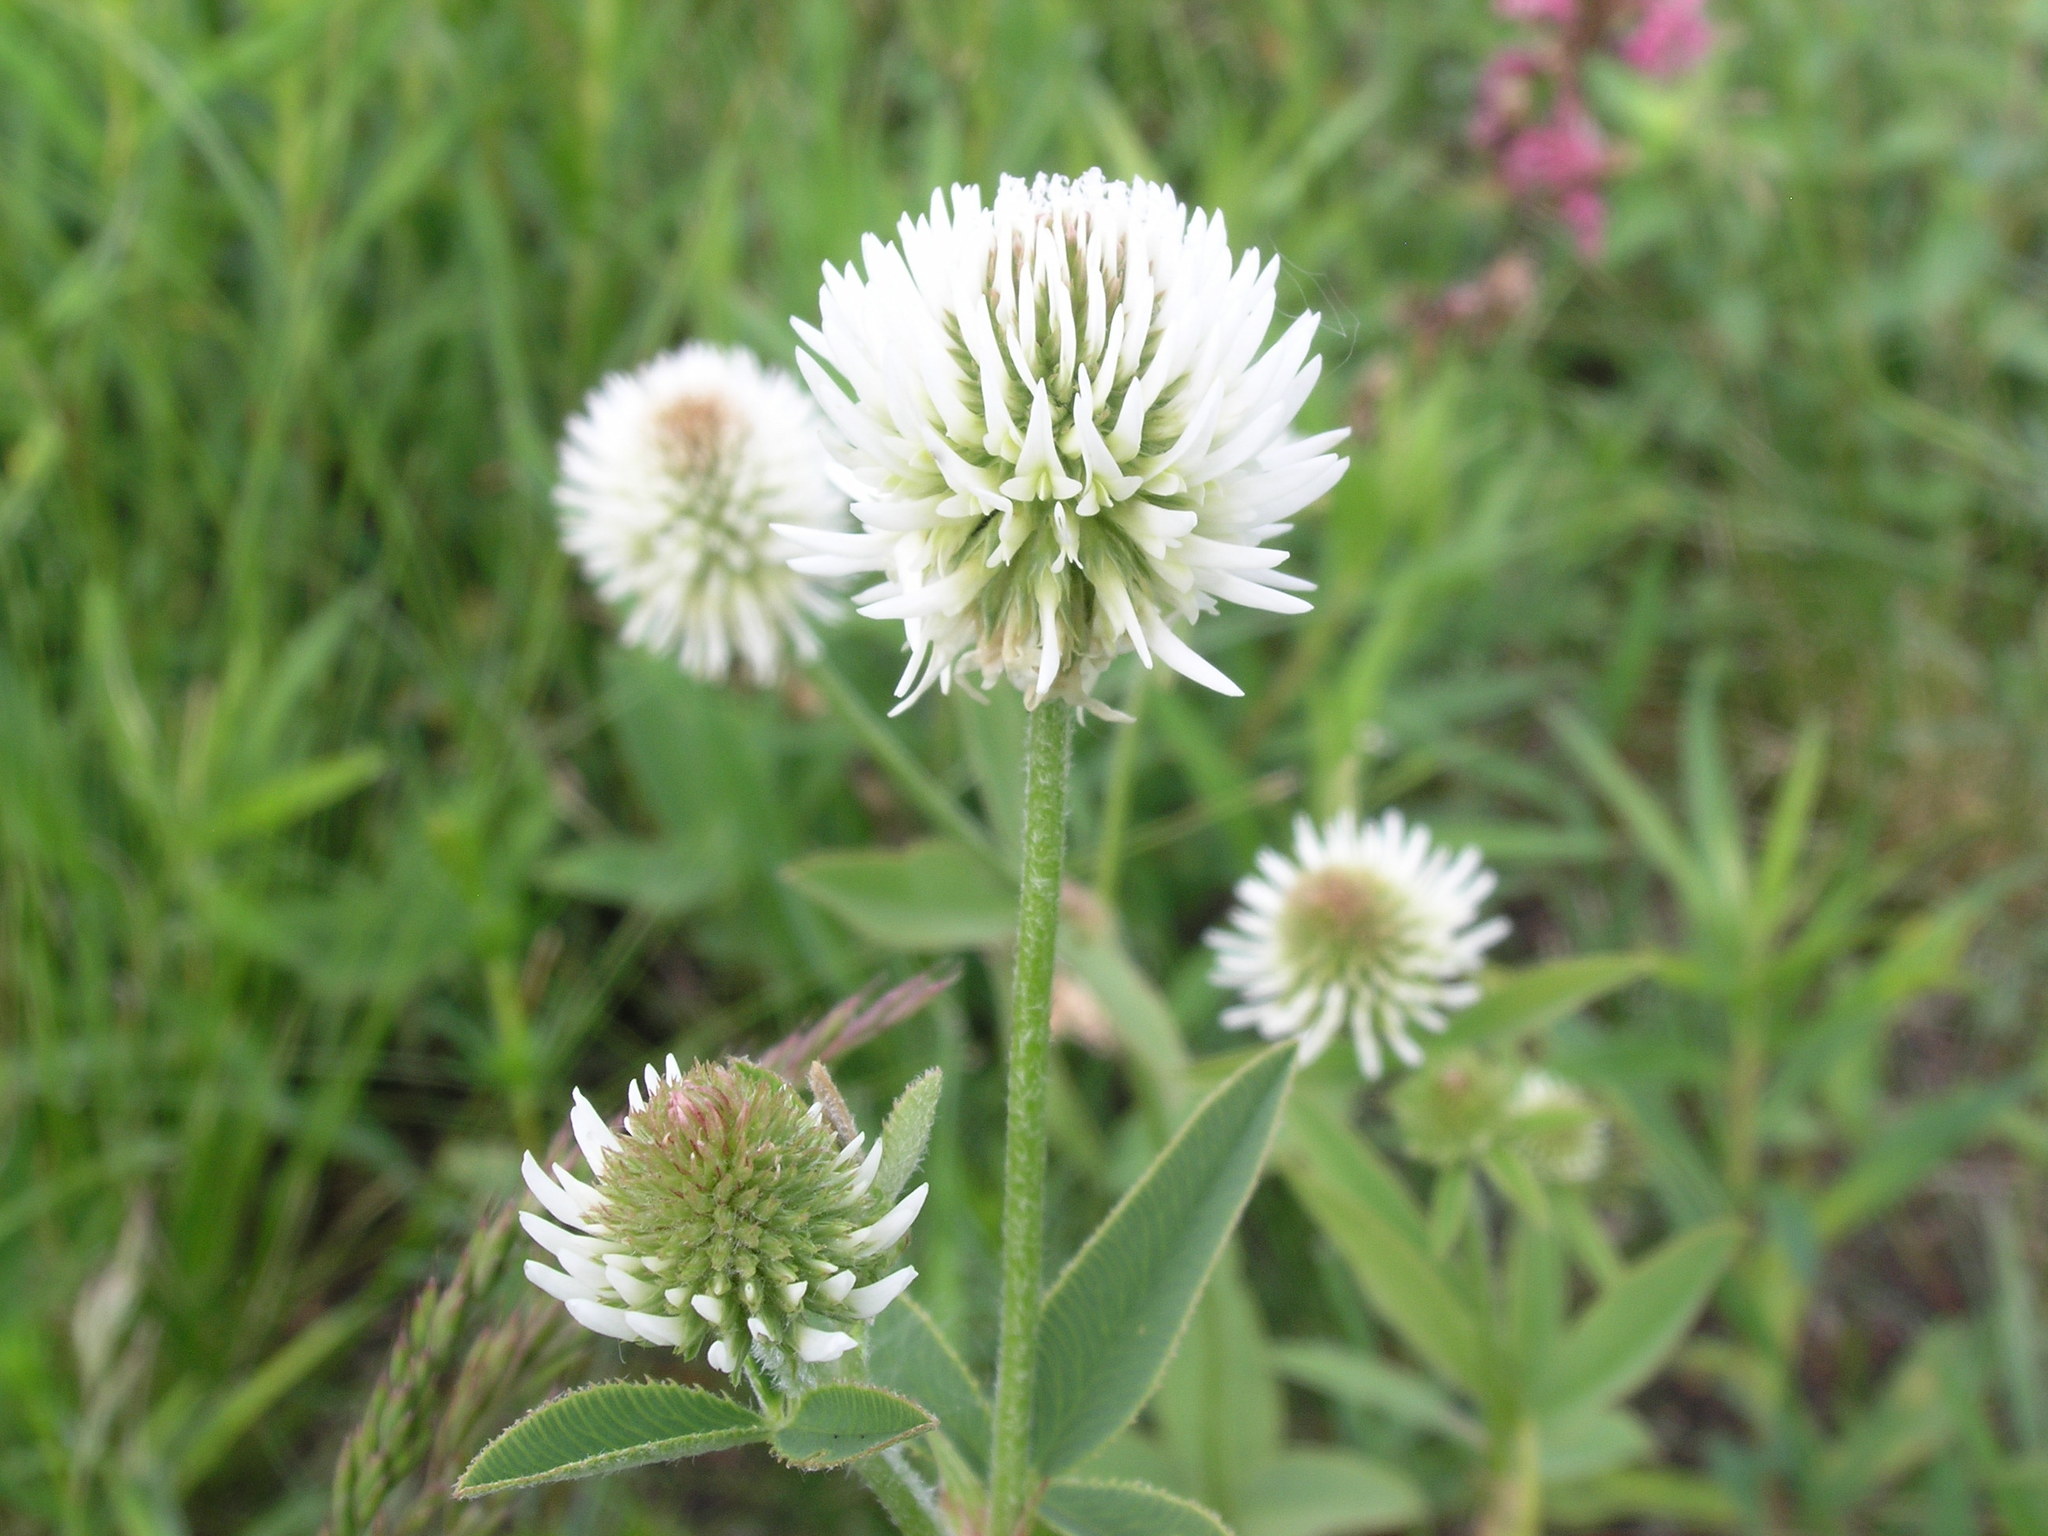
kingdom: Plantae
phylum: Tracheophyta
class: Magnoliopsida
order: Fabales
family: Fabaceae
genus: Trifolium
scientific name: Trifolium montanum
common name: Mountain clover
